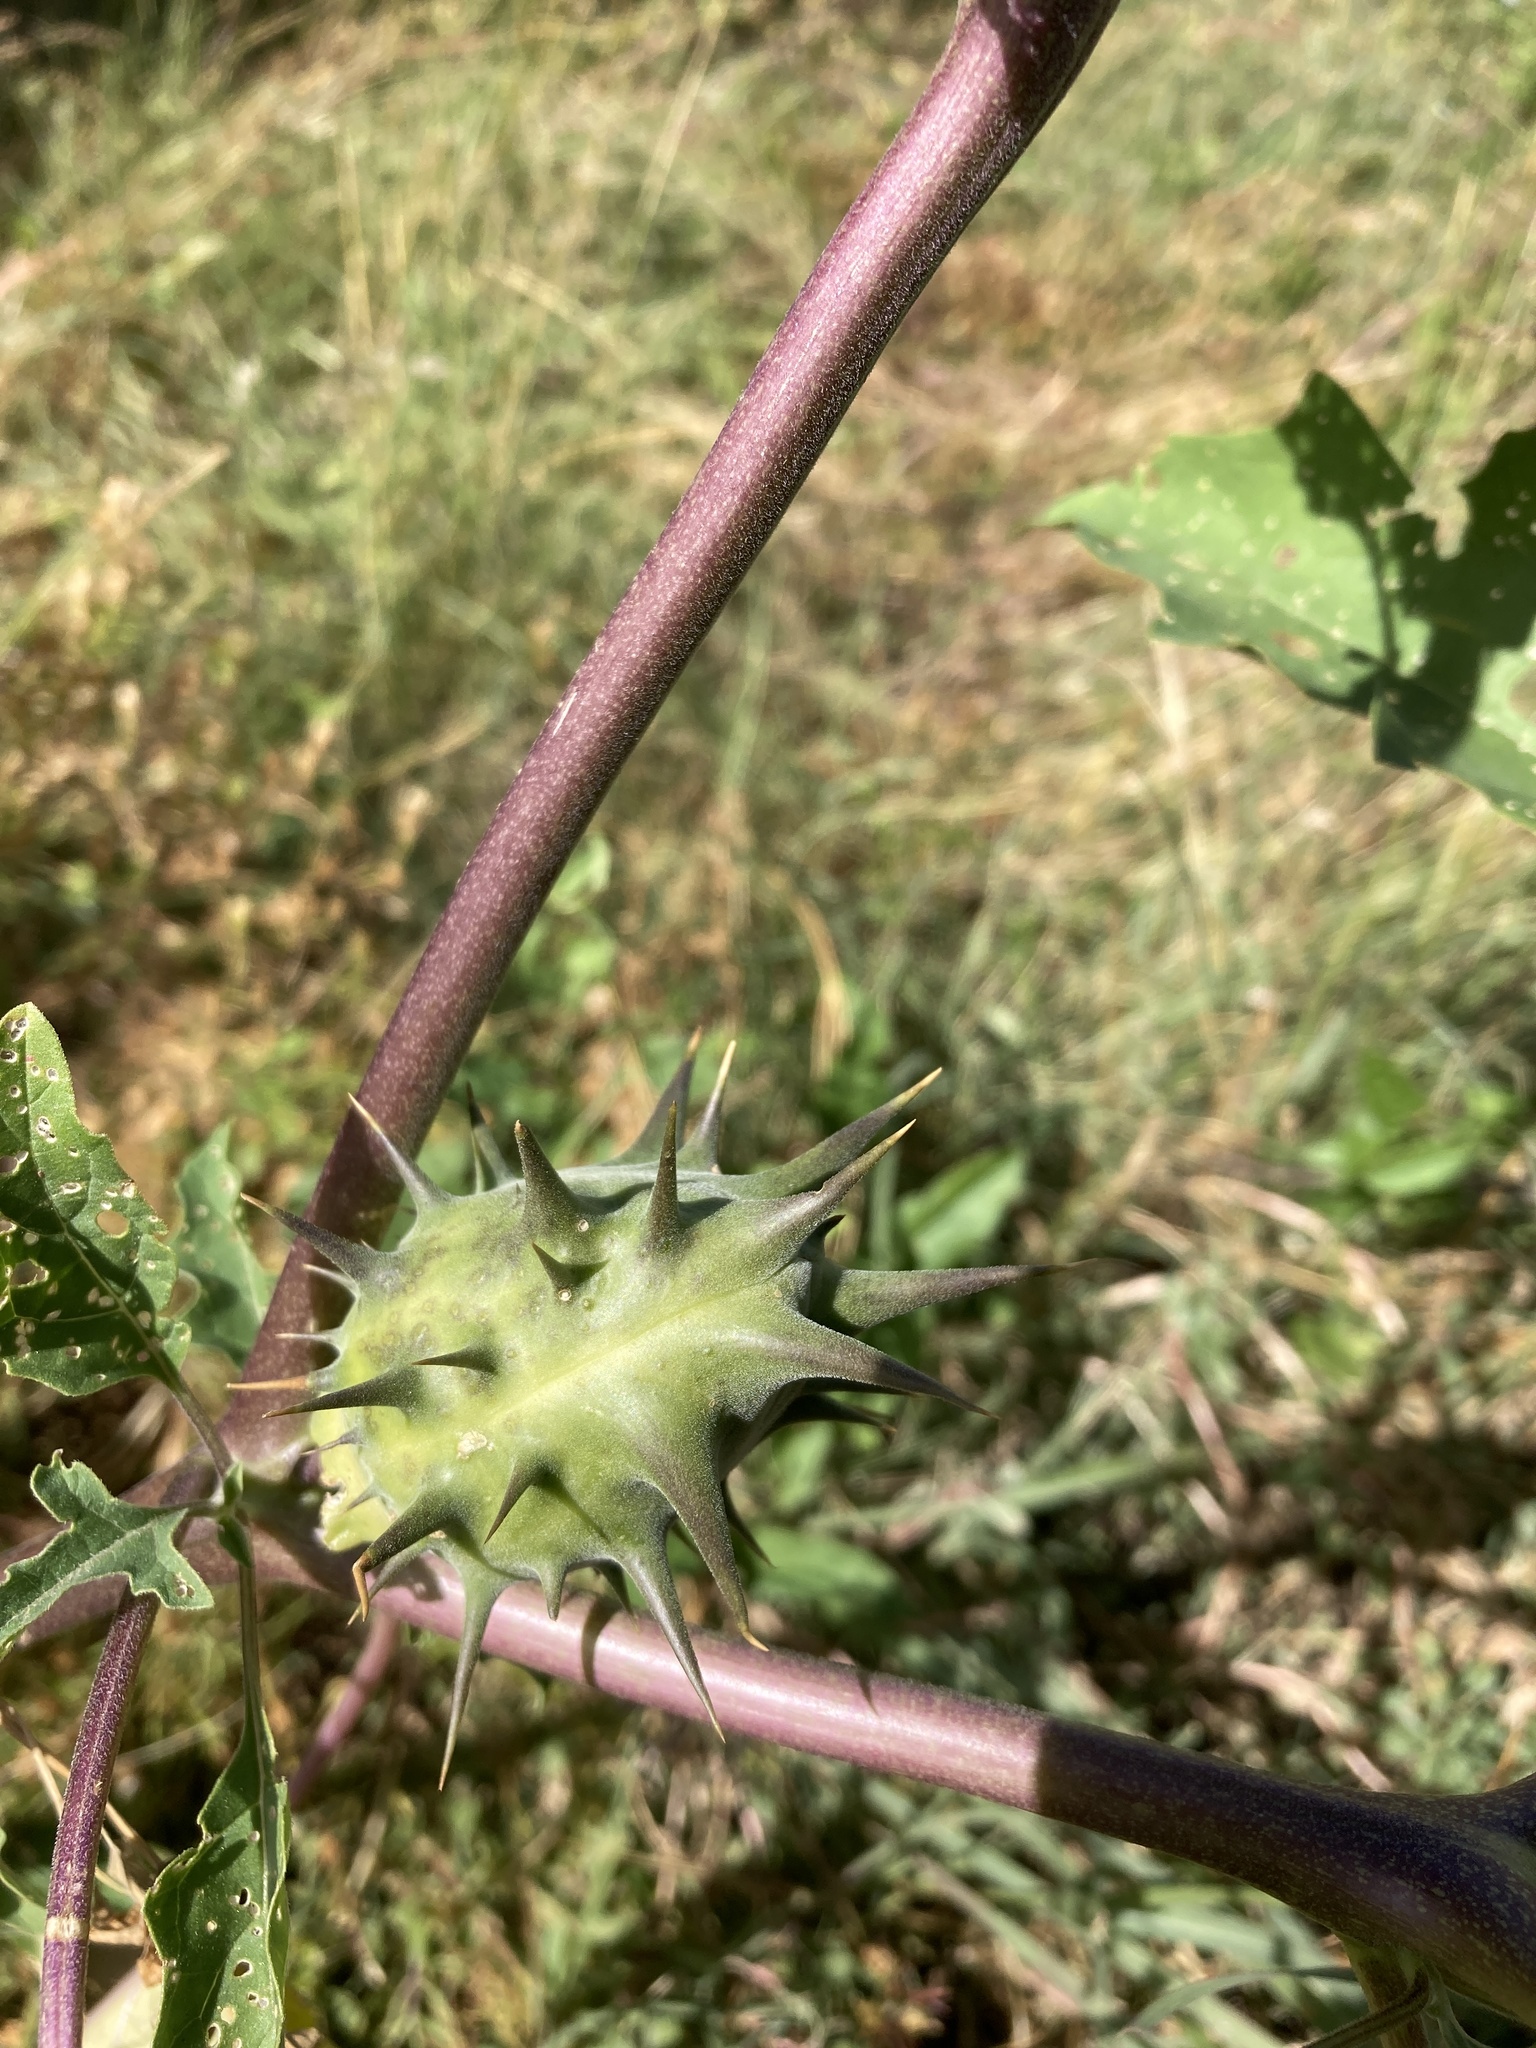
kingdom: Plantae
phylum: Tracheophyta
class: Magnoliopsida
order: Solanales
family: Solanaceae
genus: Datura
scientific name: Datura quercifolia
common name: Oak-leaf datura
